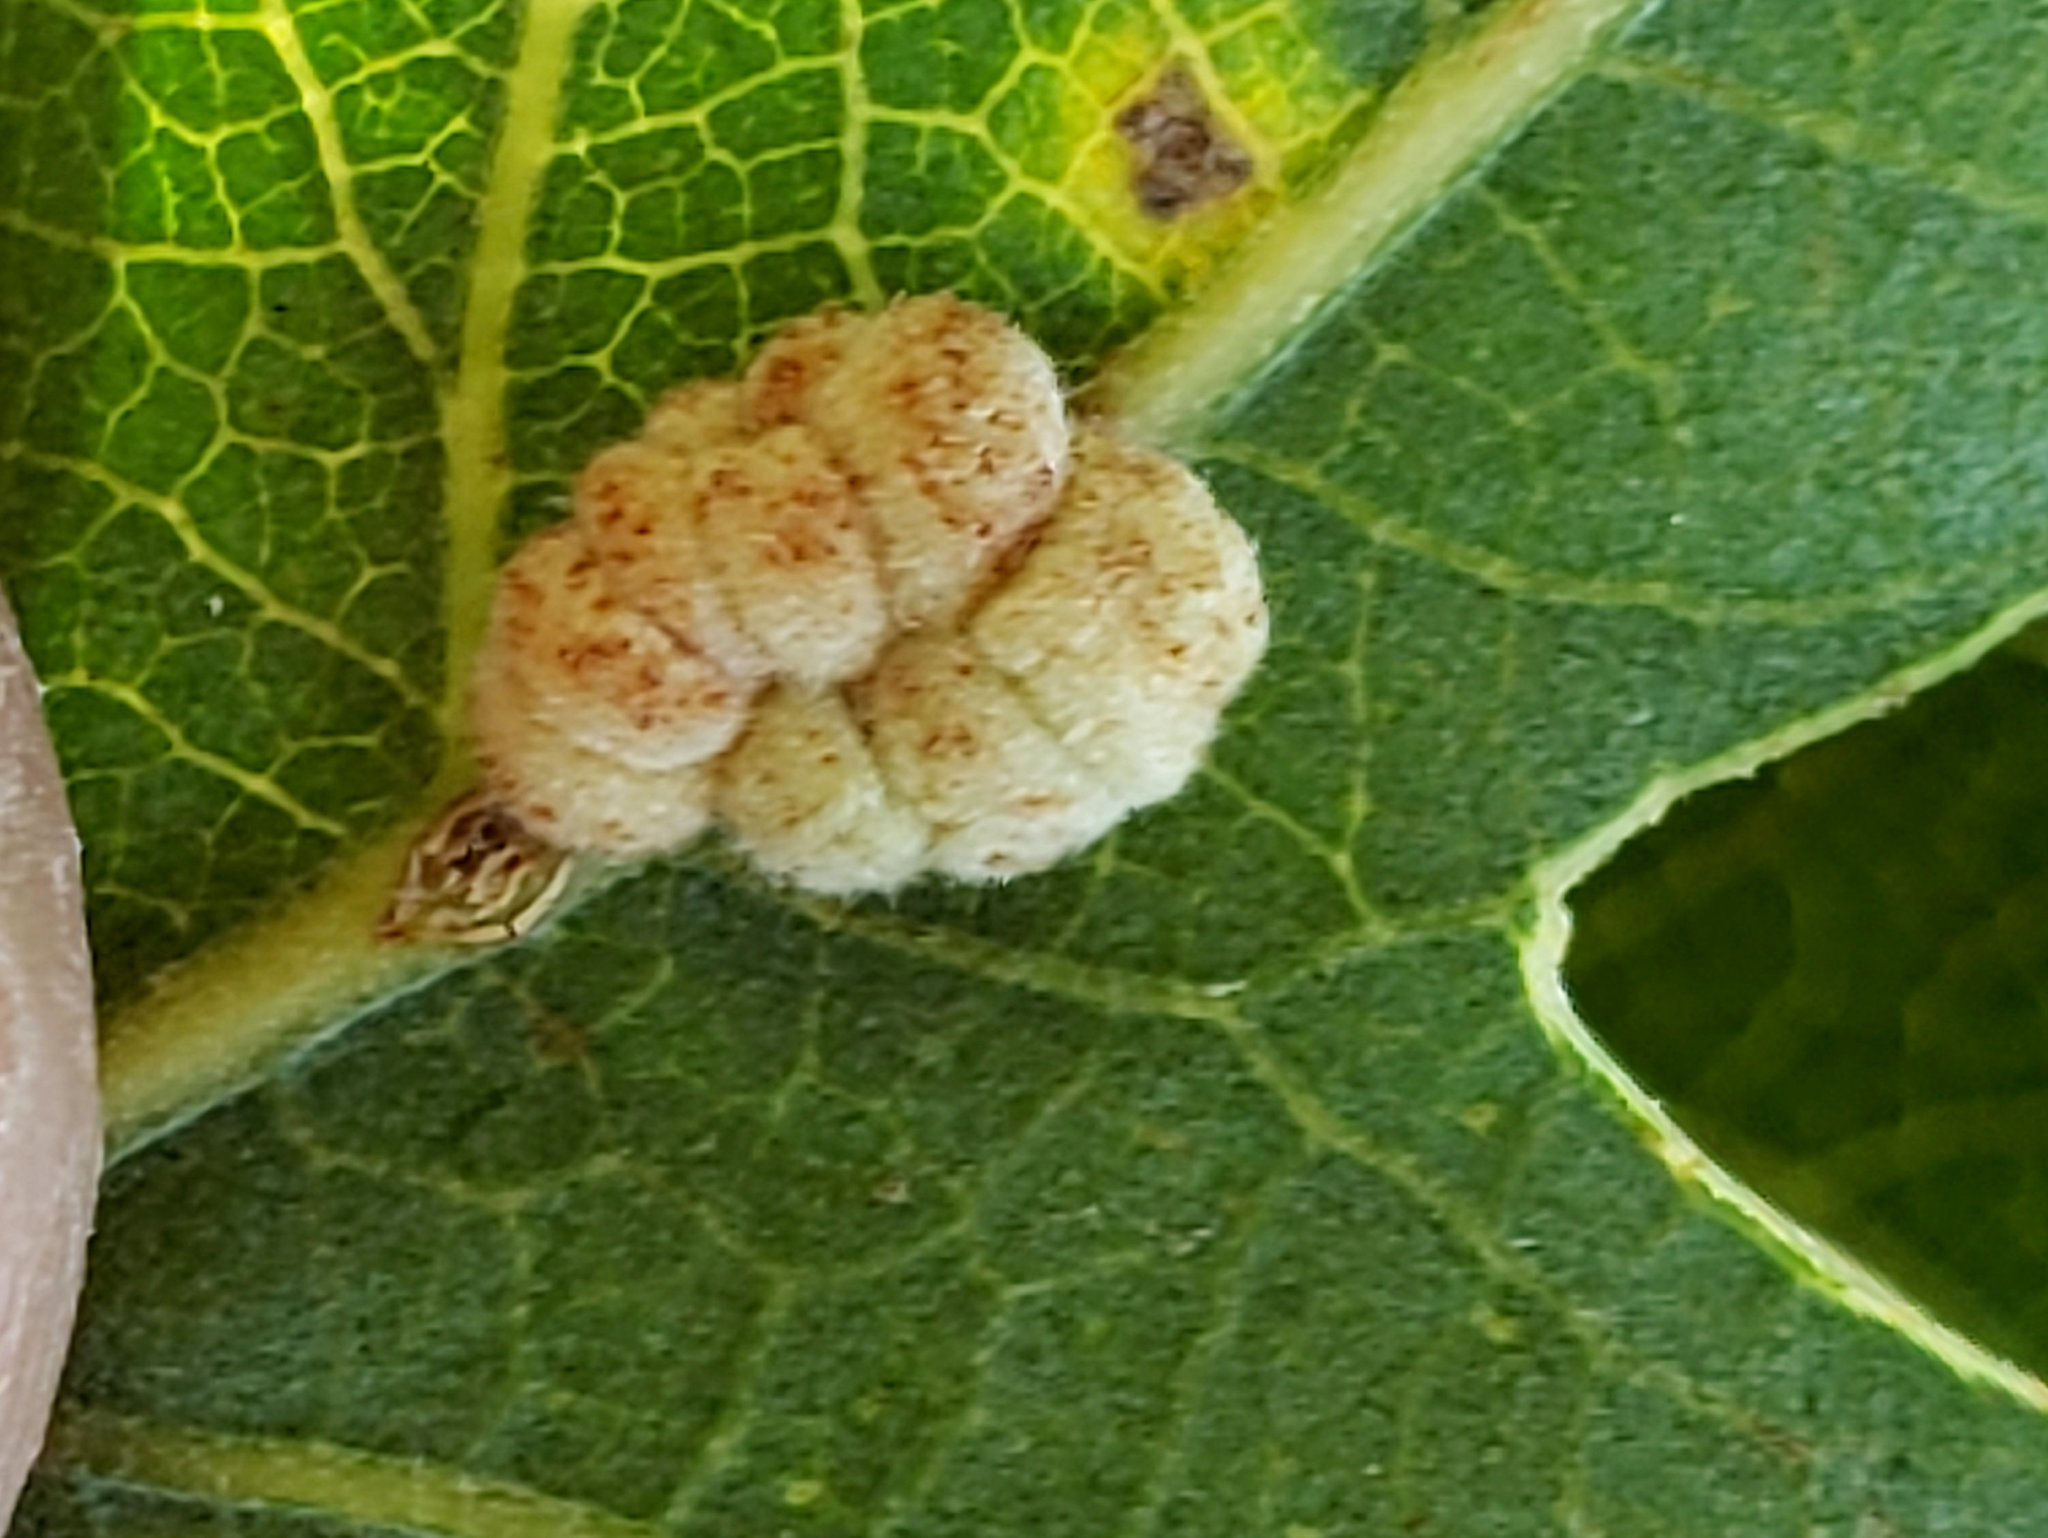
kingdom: Animalia
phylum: Arthropoda
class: Insecta
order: Hymenoptera
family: Cynipidae
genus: Andricus
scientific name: Andricus
